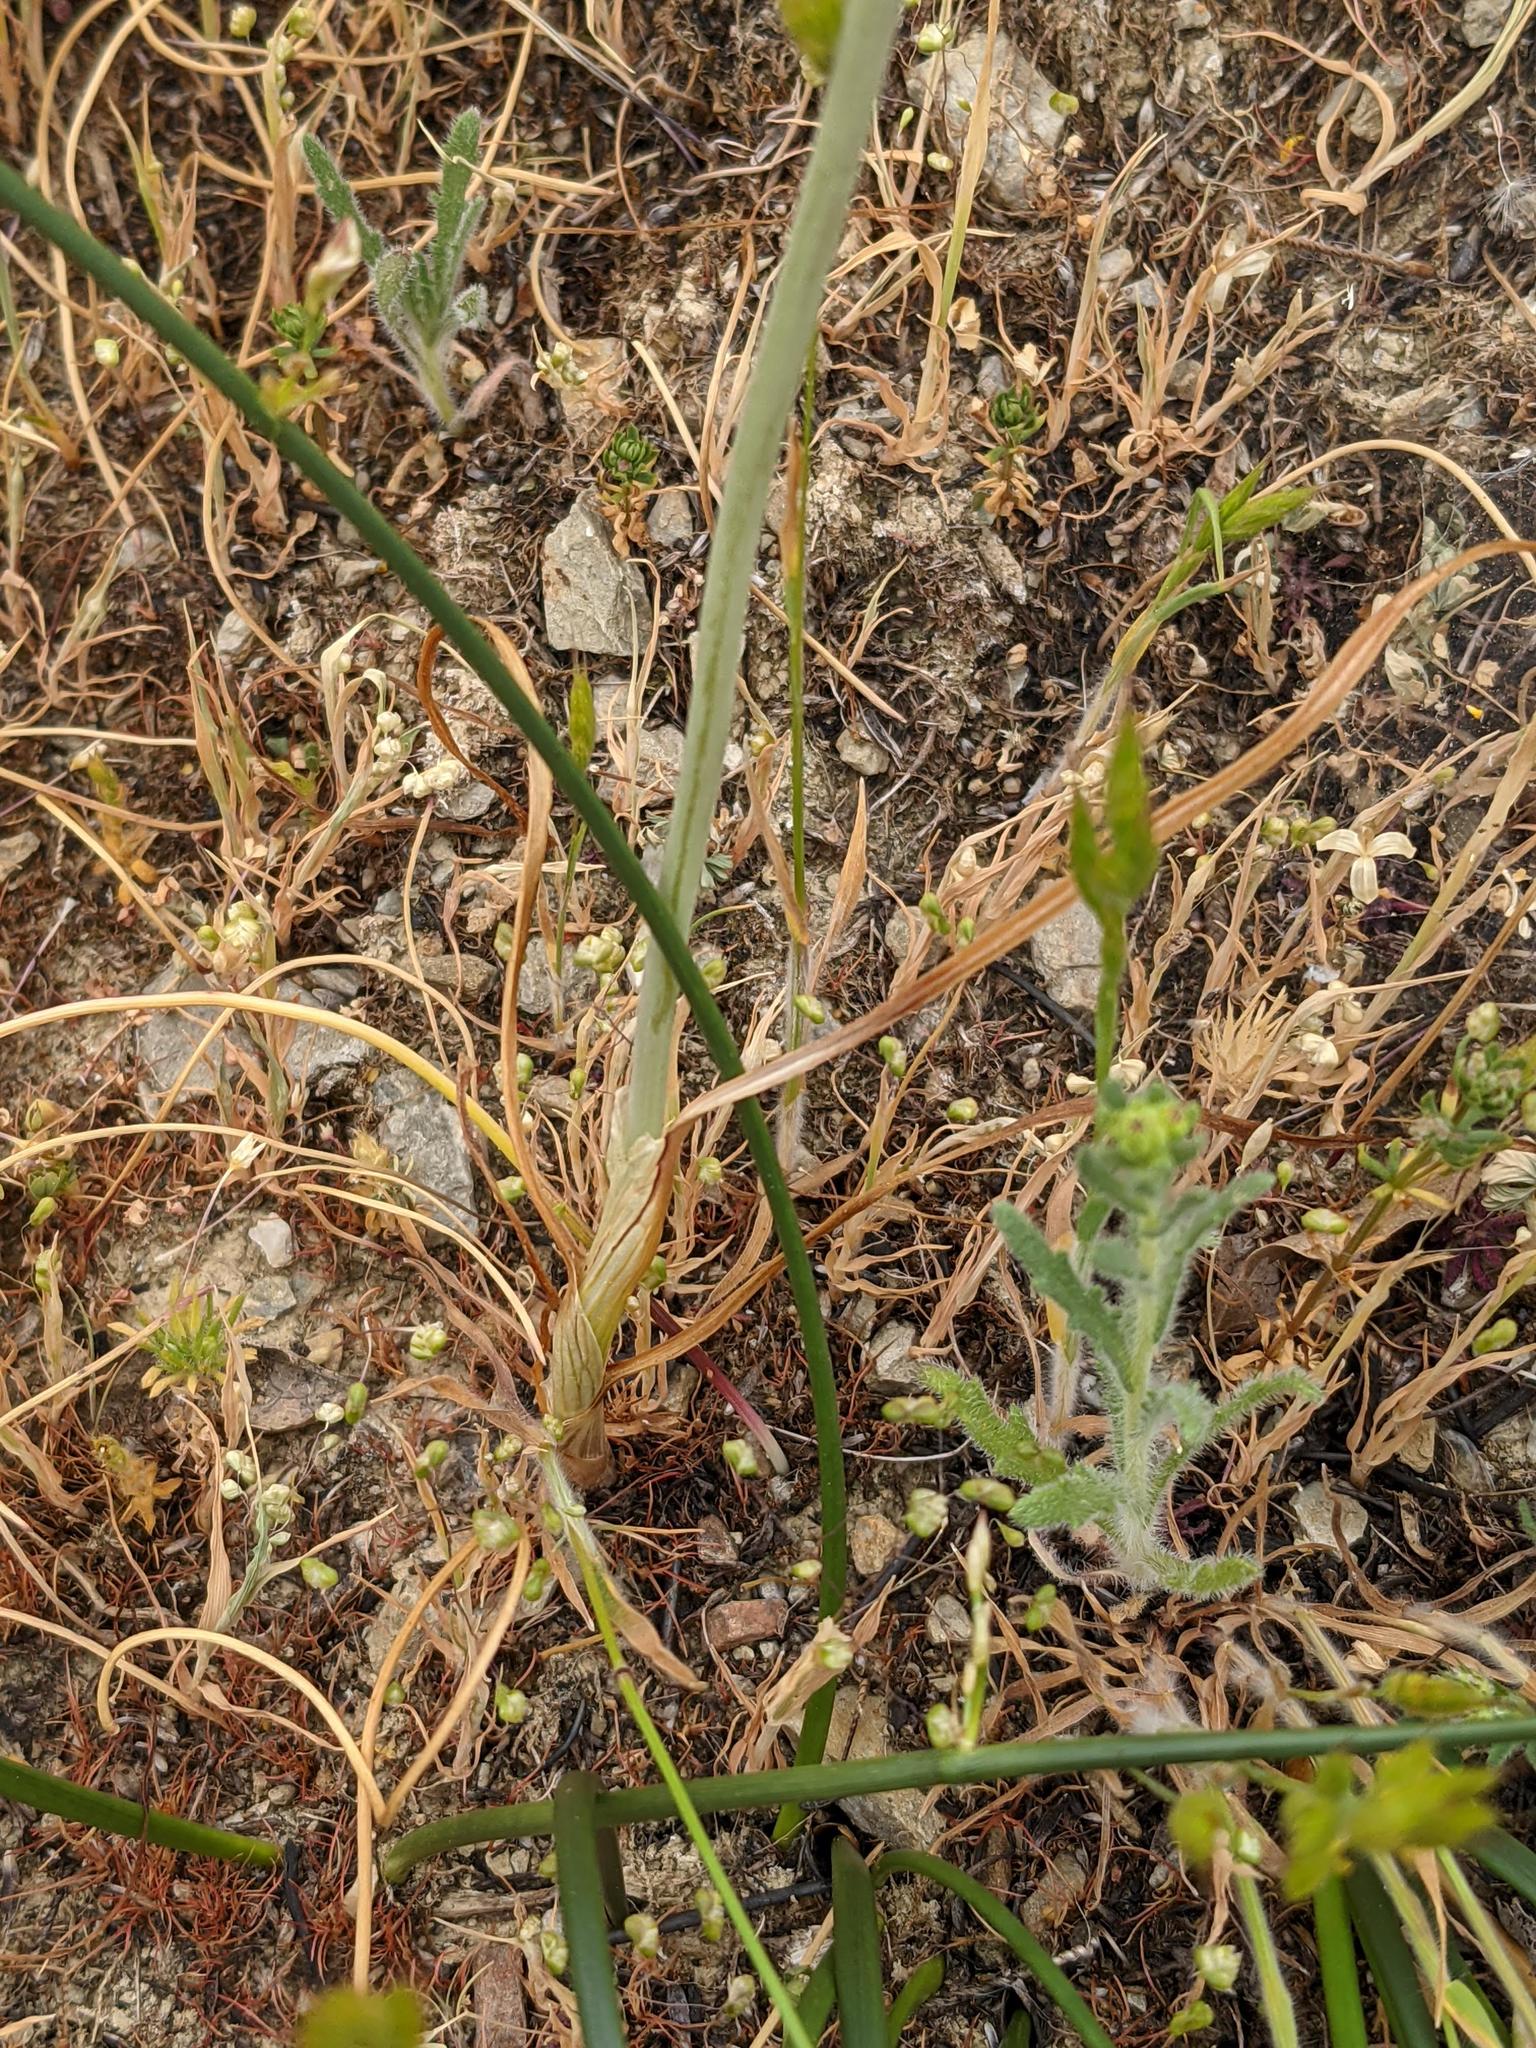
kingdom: Plantae
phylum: Tracheophyta
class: Liliopsida
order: Asparagales
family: Amaryllidaceae
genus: Allium
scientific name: Allium amplectens
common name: Narrow-leaved onion
